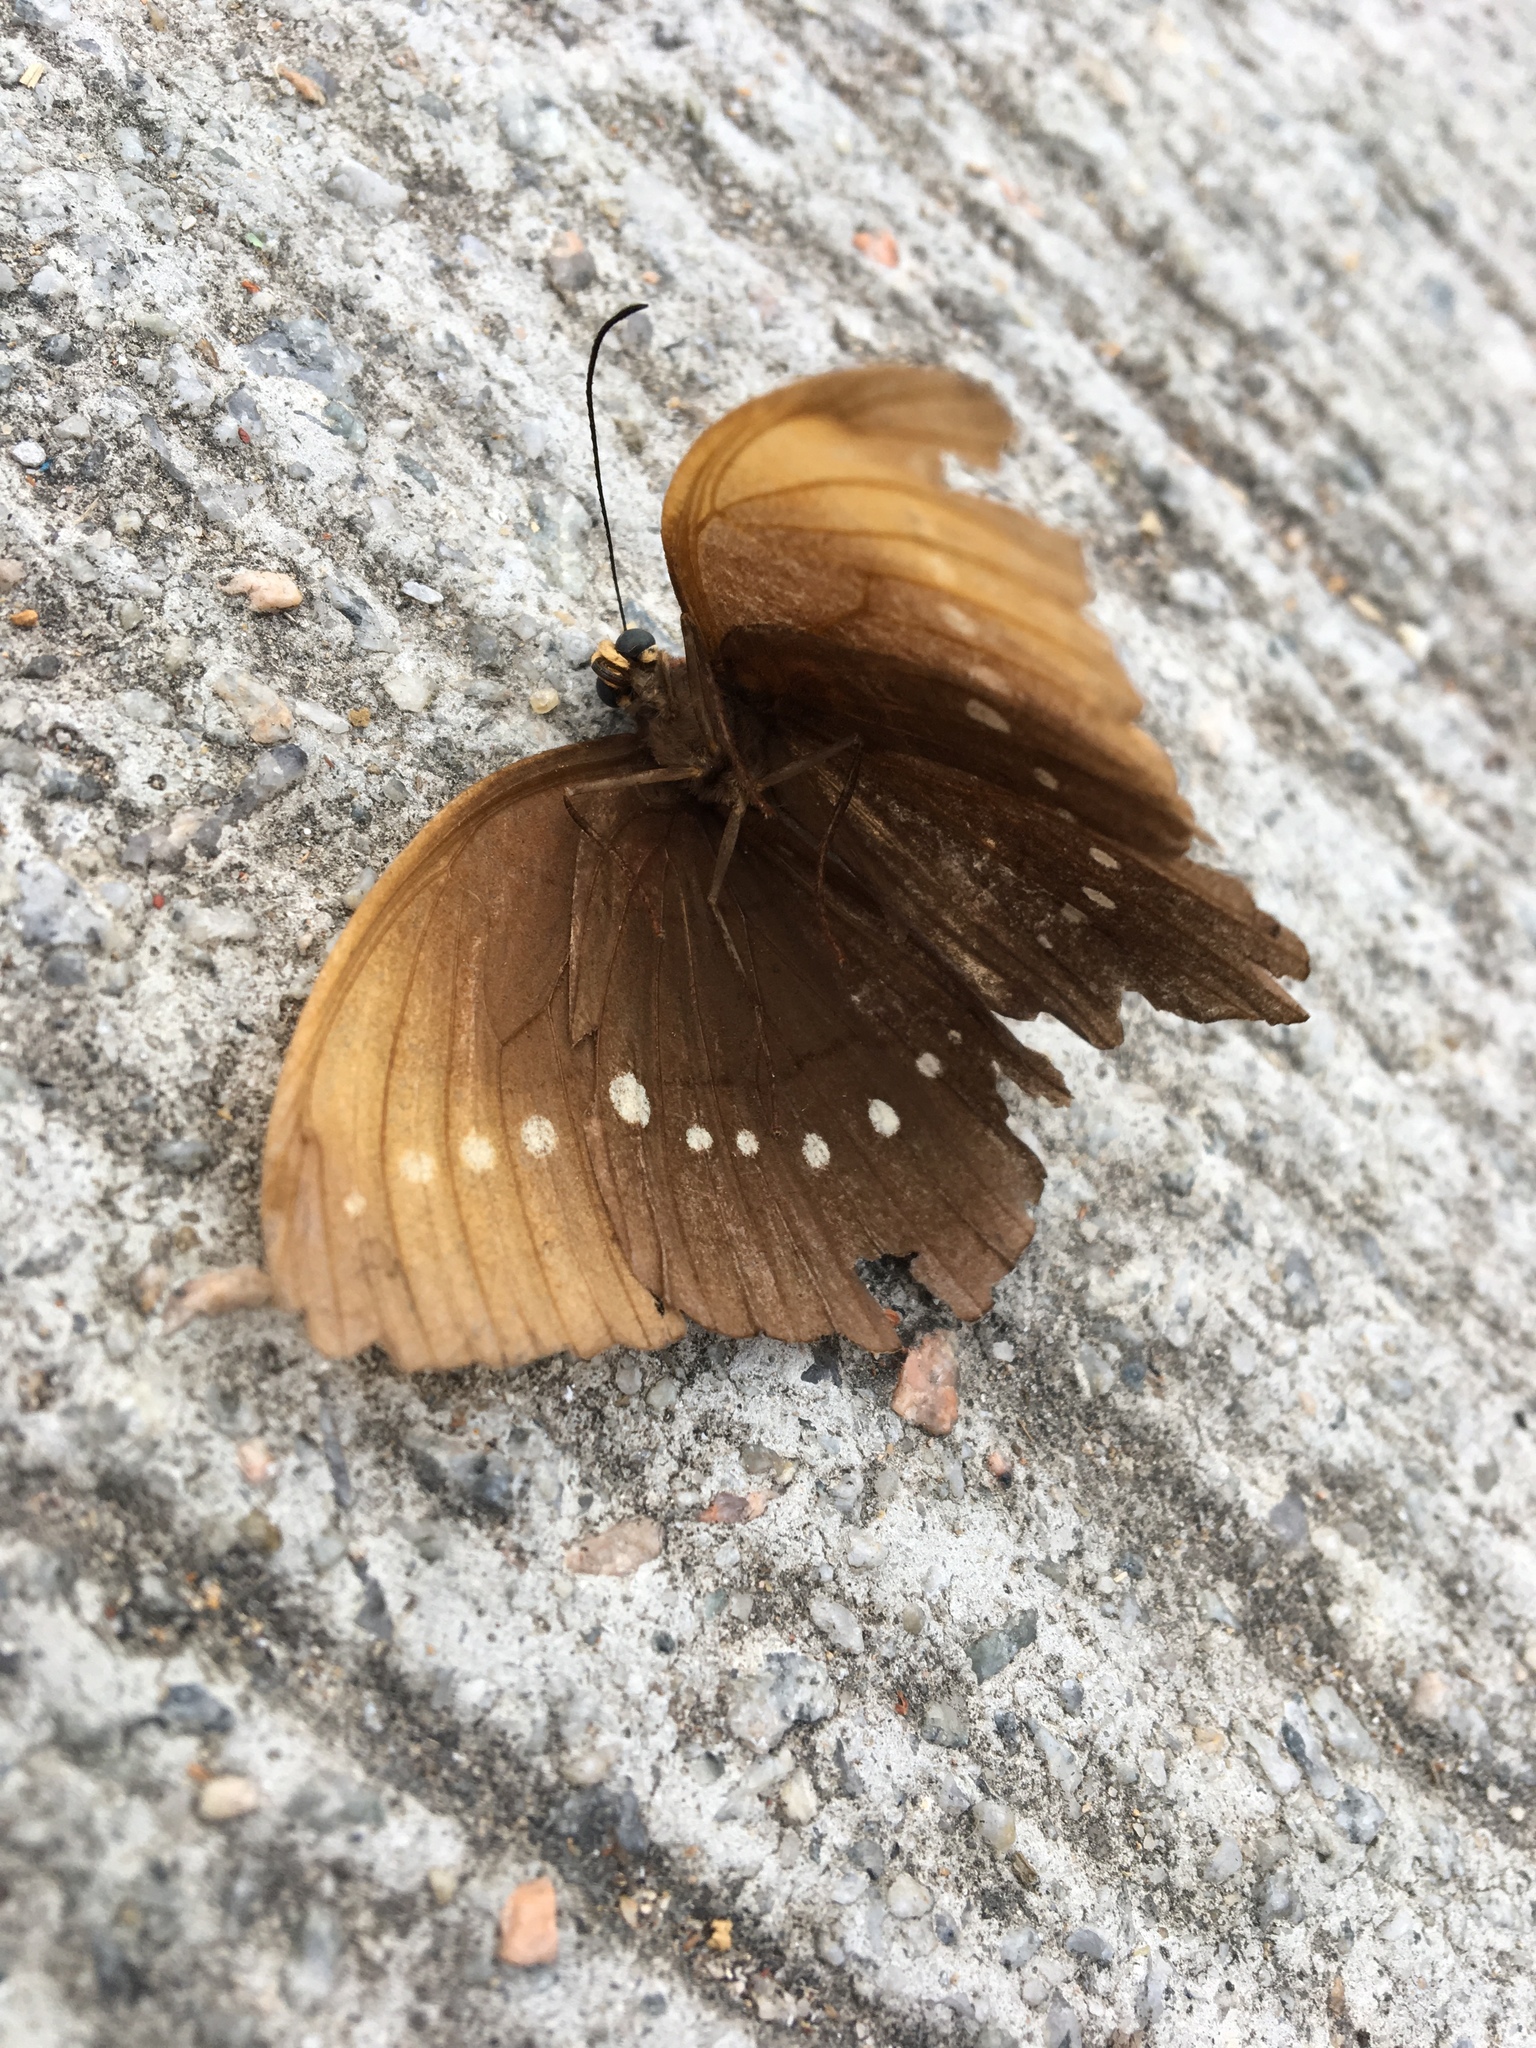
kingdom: Animalia
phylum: Arthropoda
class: Insecta
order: Lepidoptera
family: Nymphalidae
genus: Faunis
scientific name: Faunis eumeus
